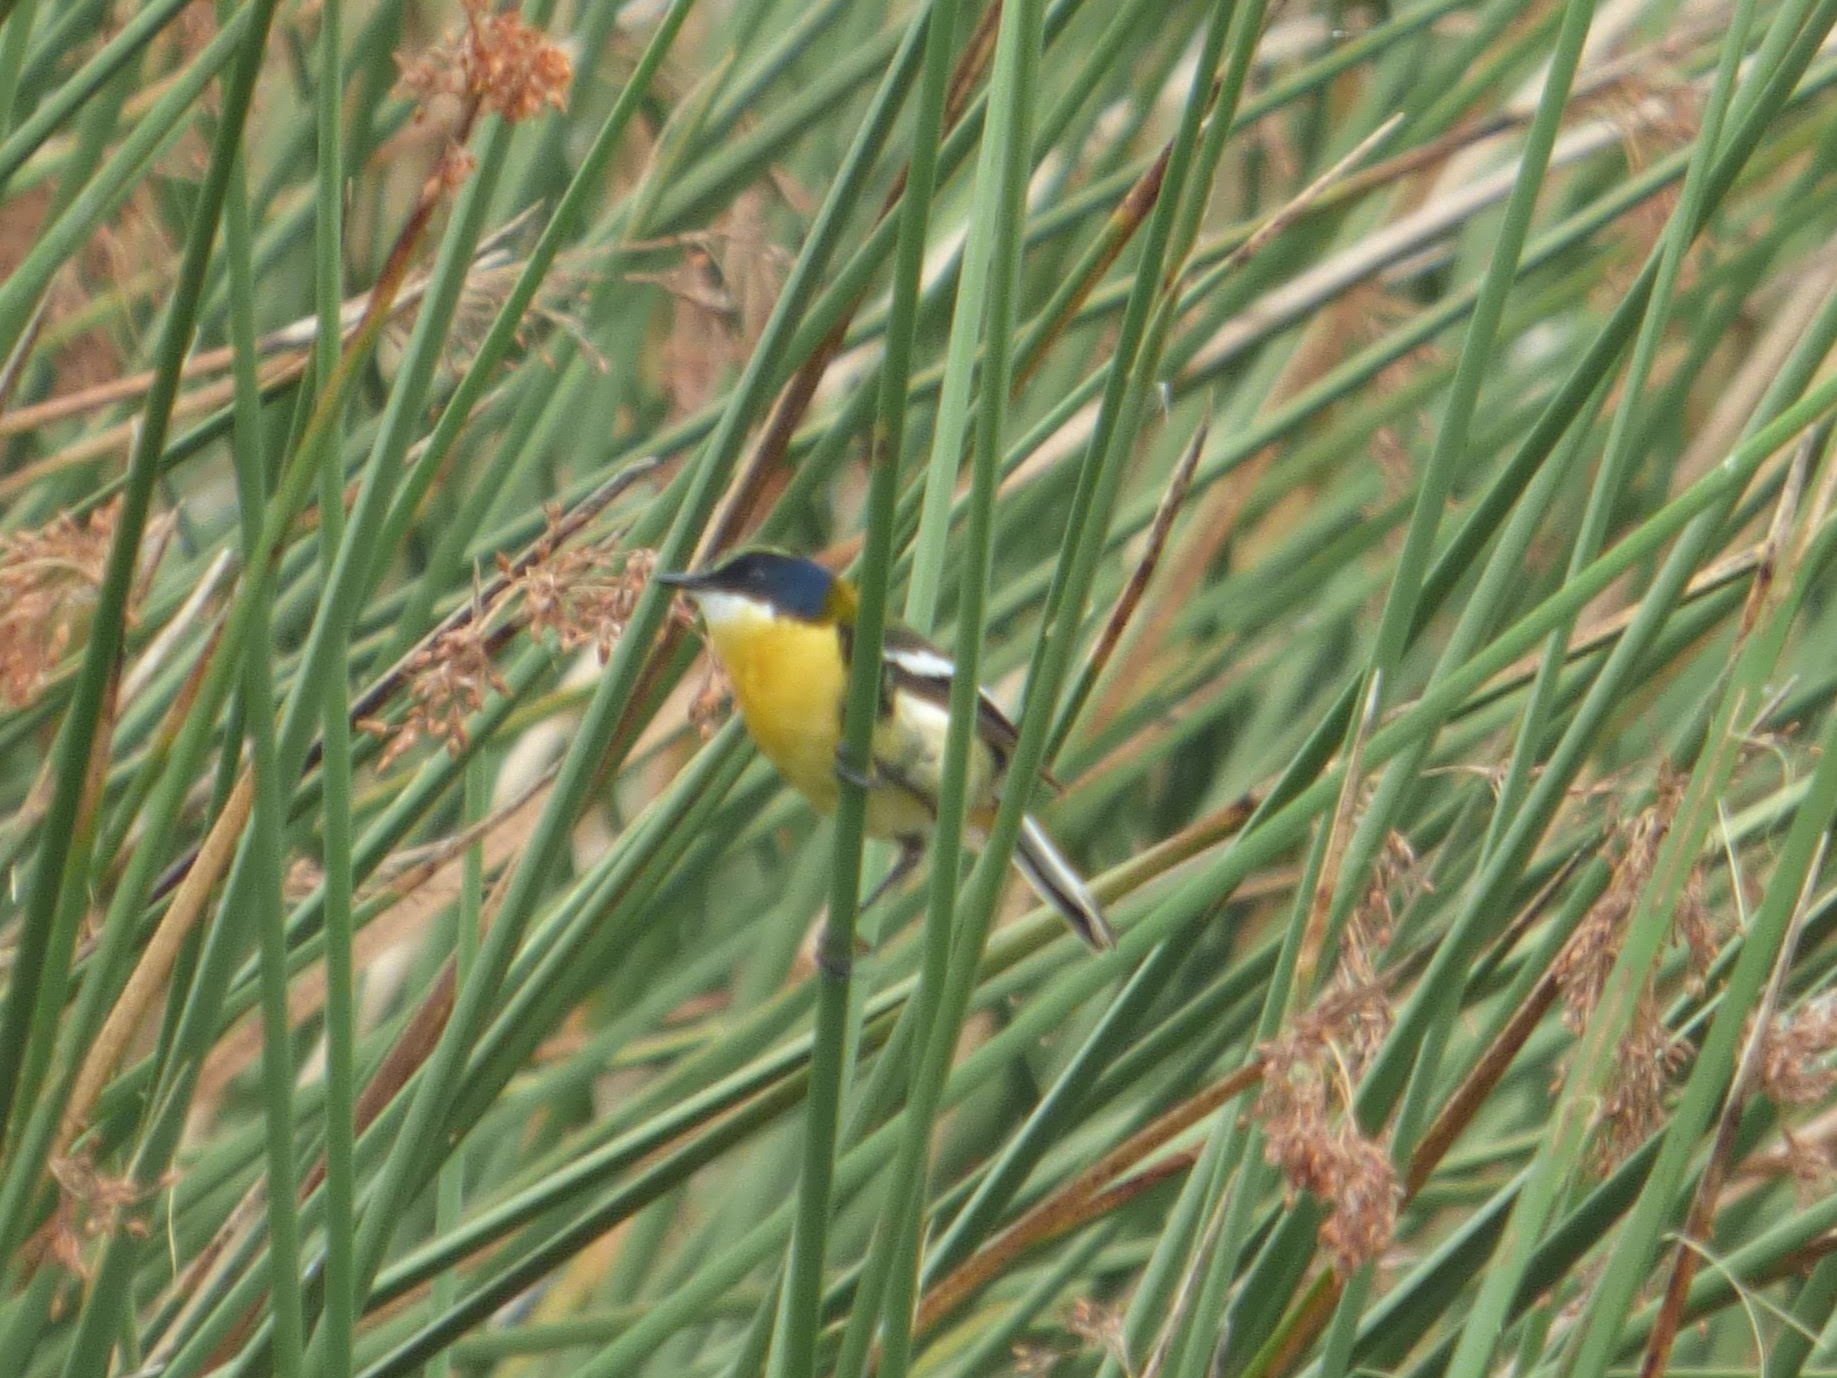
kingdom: Animalia
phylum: Chordata
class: Aves
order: Passeriformes
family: Tyrannidae
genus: Tachuris
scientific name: Tachuris rubrigastra
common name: Many-colored rush tyrant
